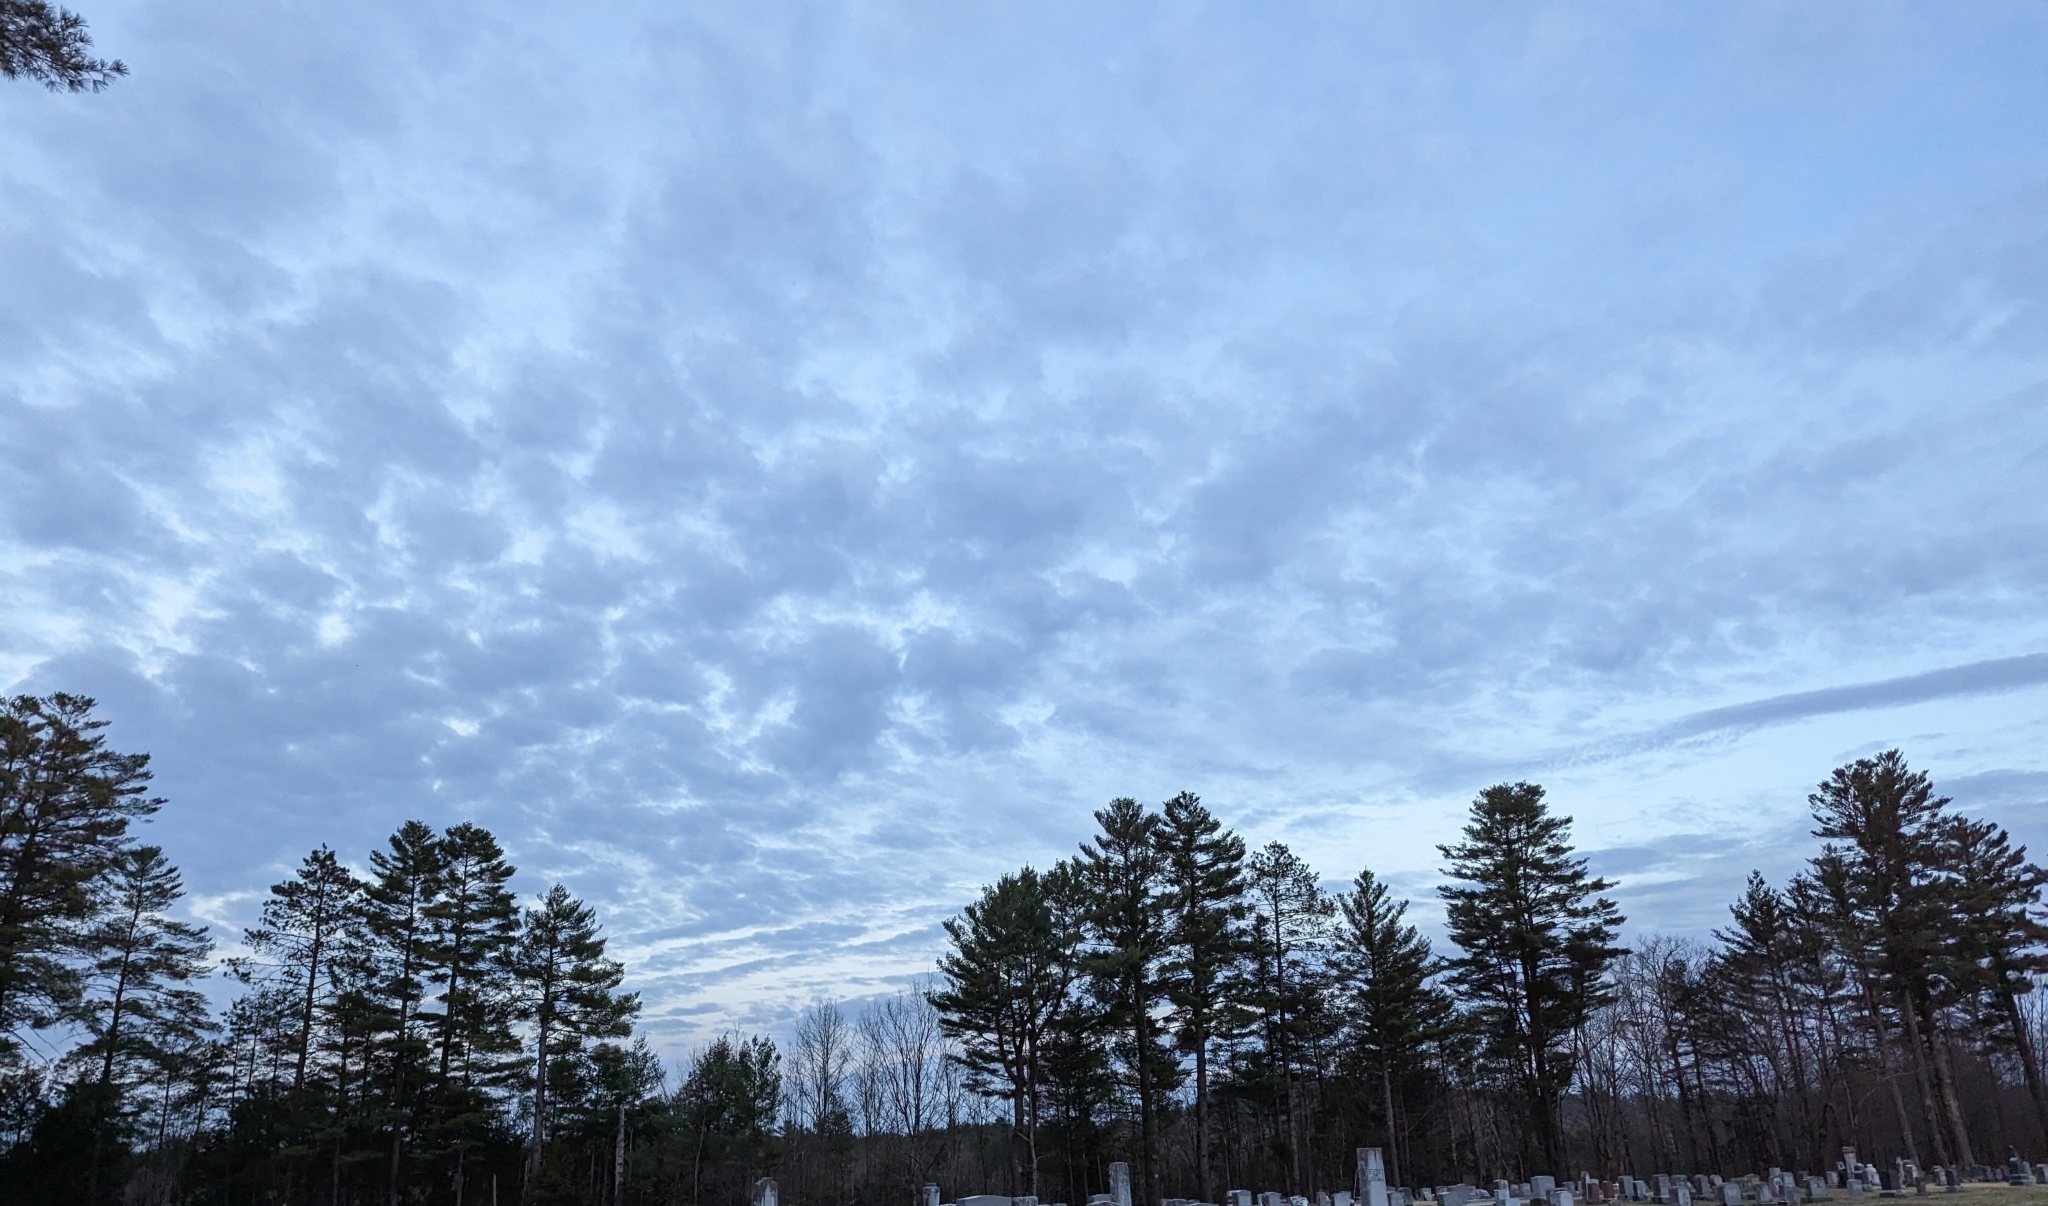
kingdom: Plantae
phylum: Tracheophyta
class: Pinopsida
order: Pinales
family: Pinaceae
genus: Pinus
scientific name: Pinus strobus
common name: Weymouth pine
